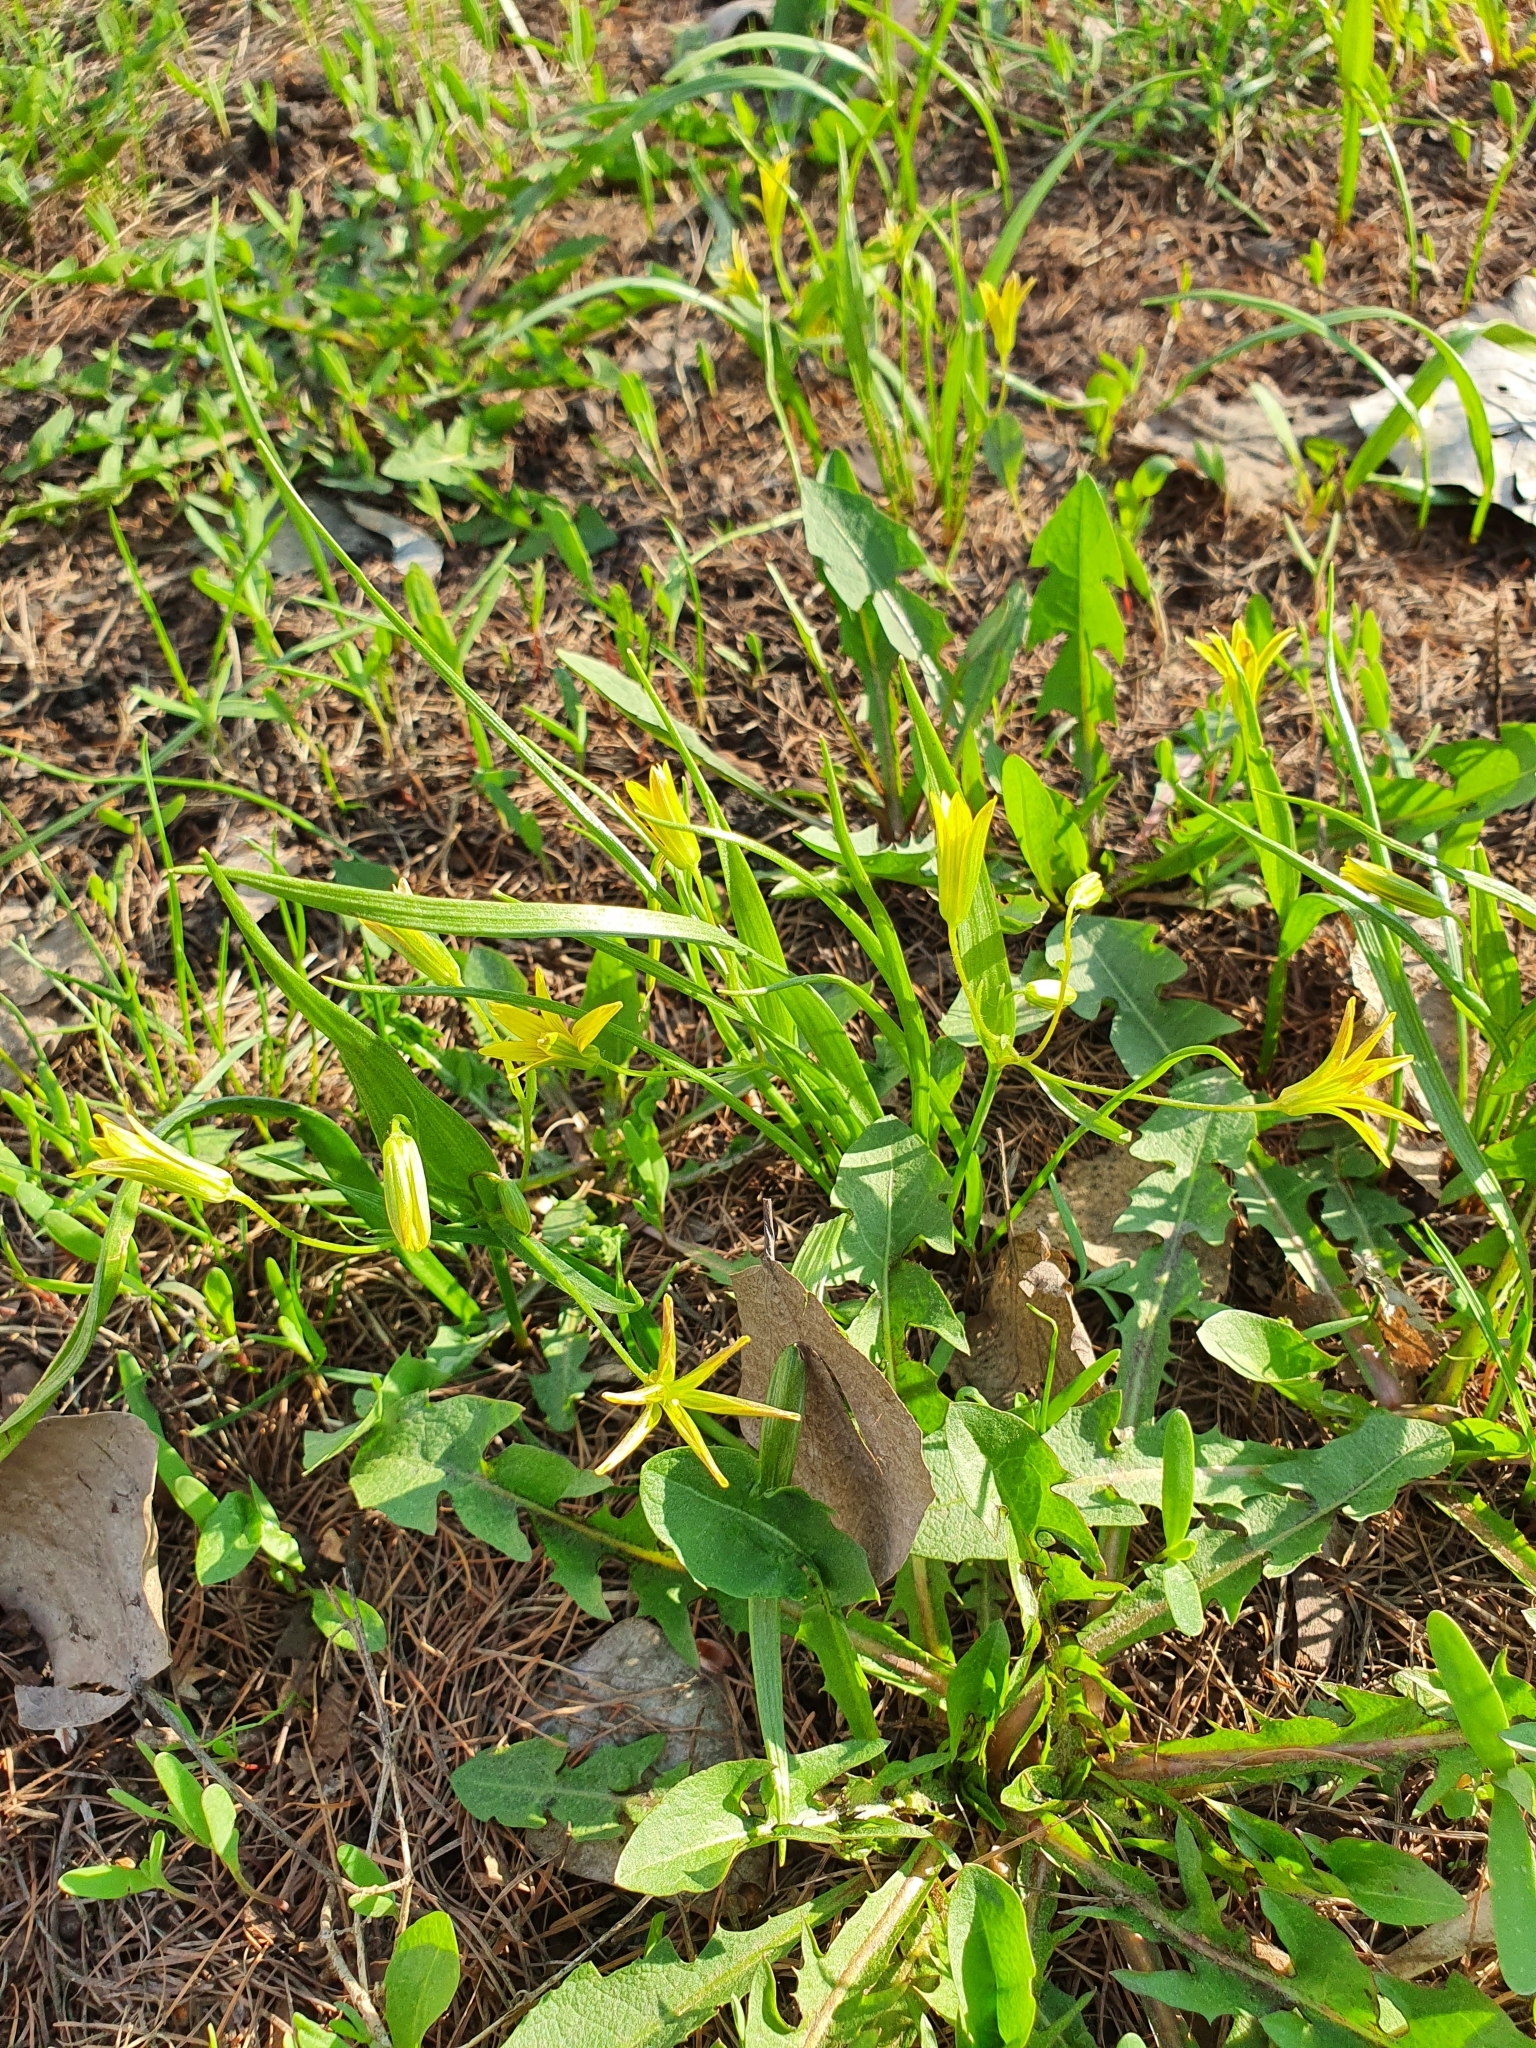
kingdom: Plantae
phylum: Tracheophyta
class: Liliopsida
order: Liliales
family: Liliaceae
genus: Gagea
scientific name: Gagea minima
